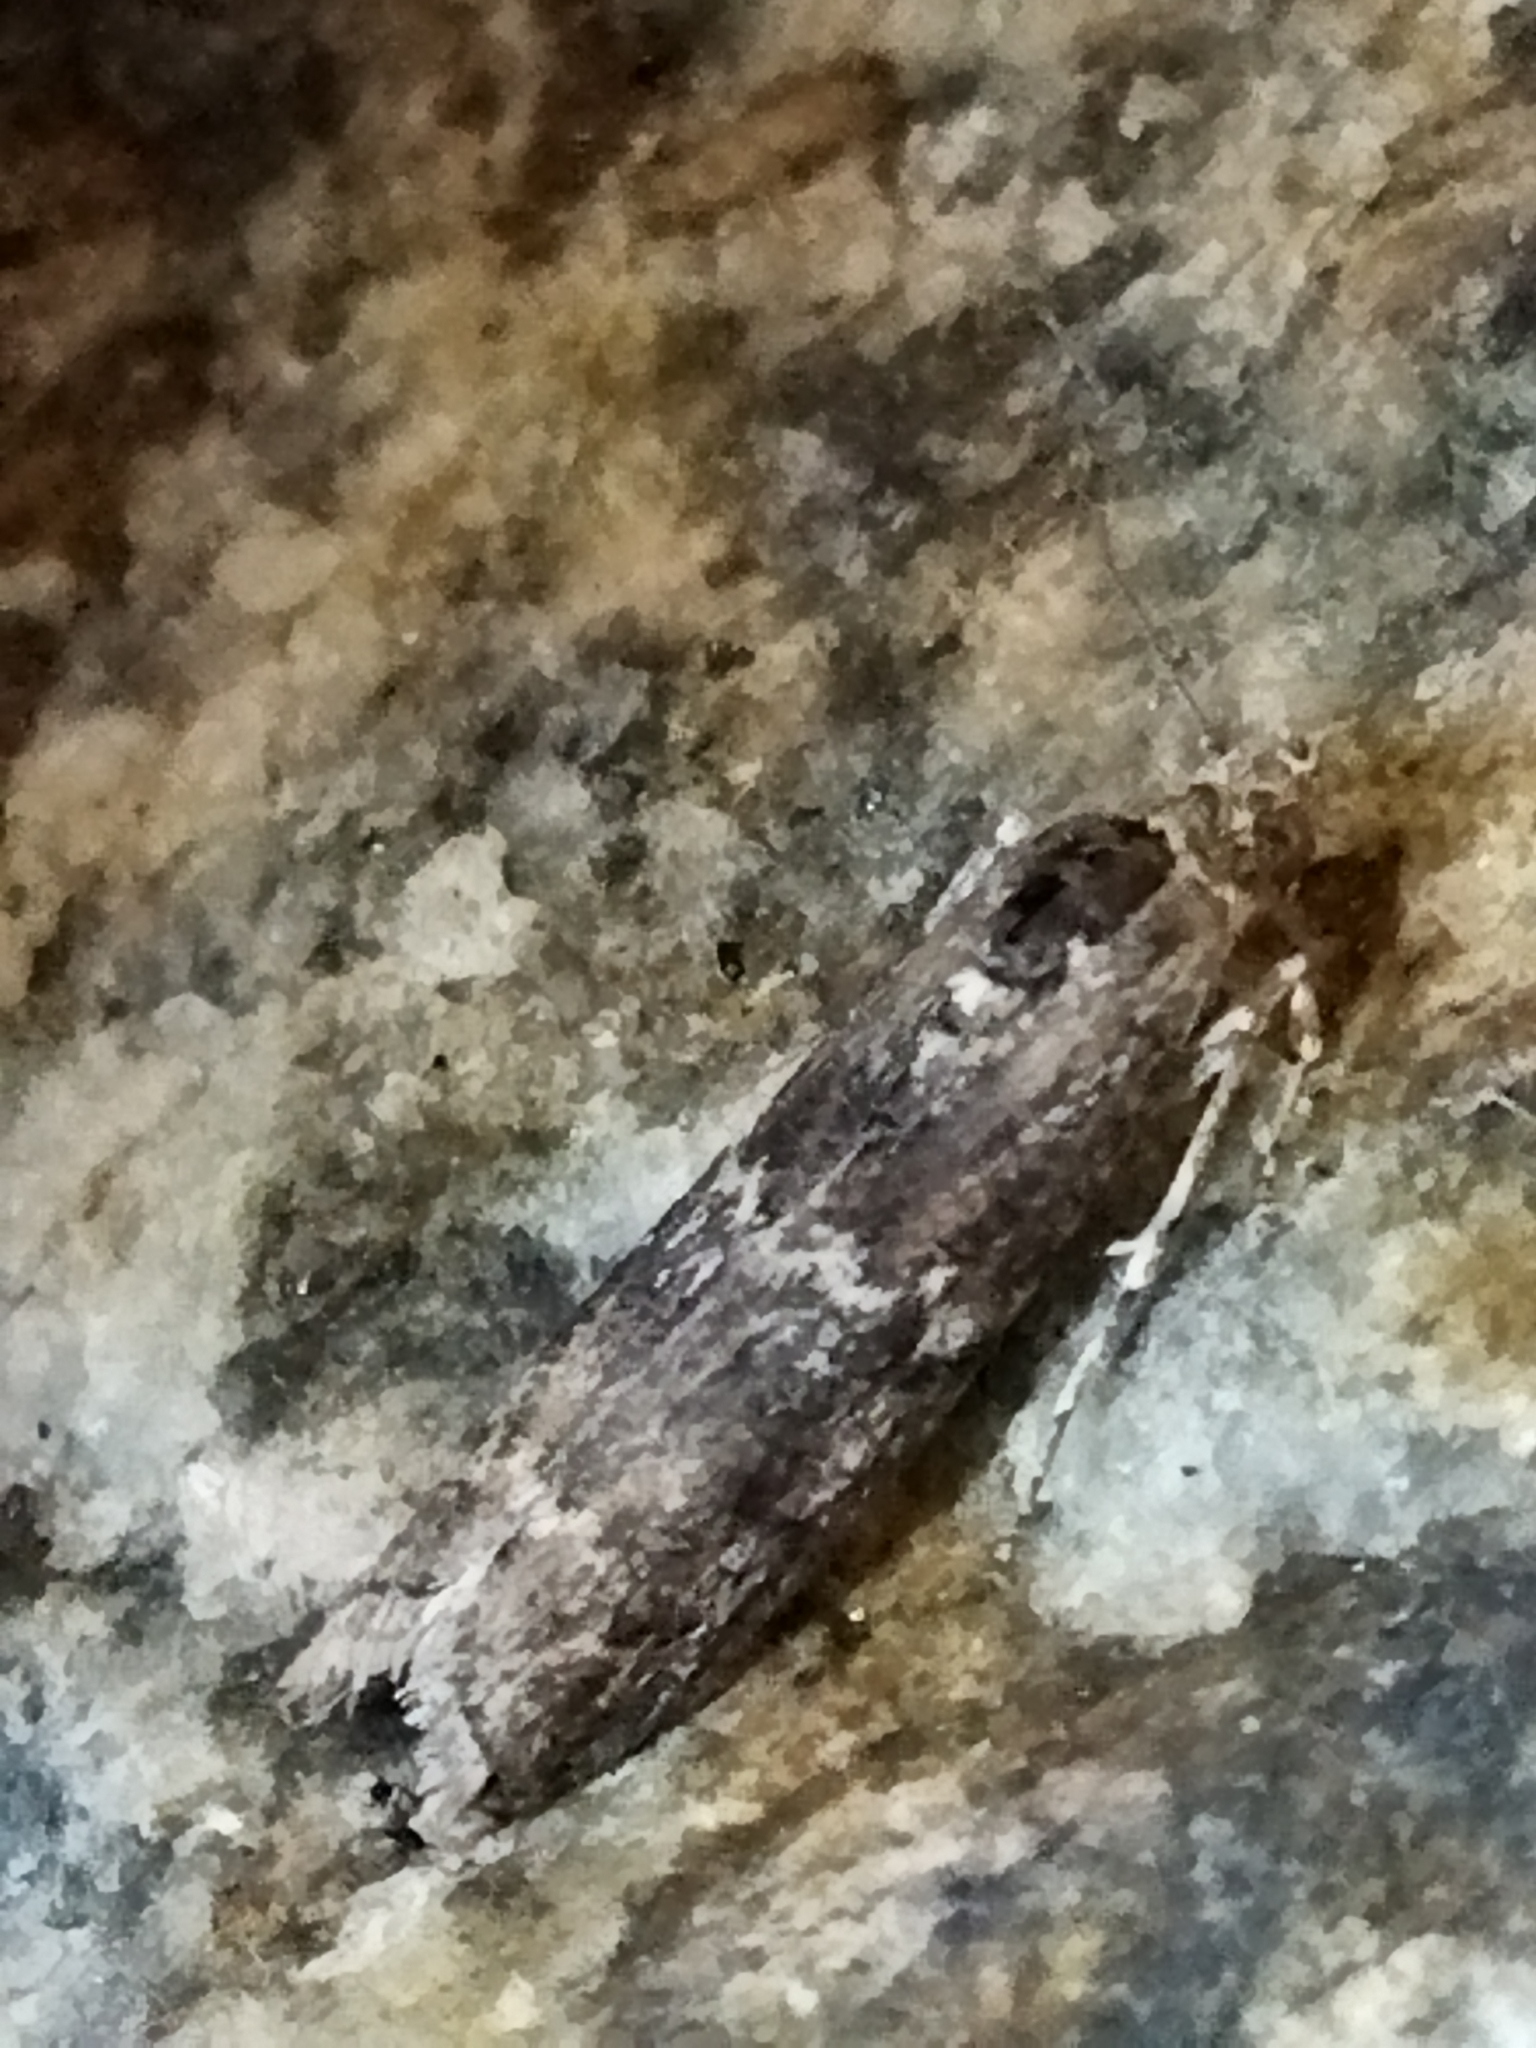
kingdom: Animalia
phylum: Arthropoda
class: Insecta
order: Lepidoptera
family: Pyralidae
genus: Pyla
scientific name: Pyla fusca
